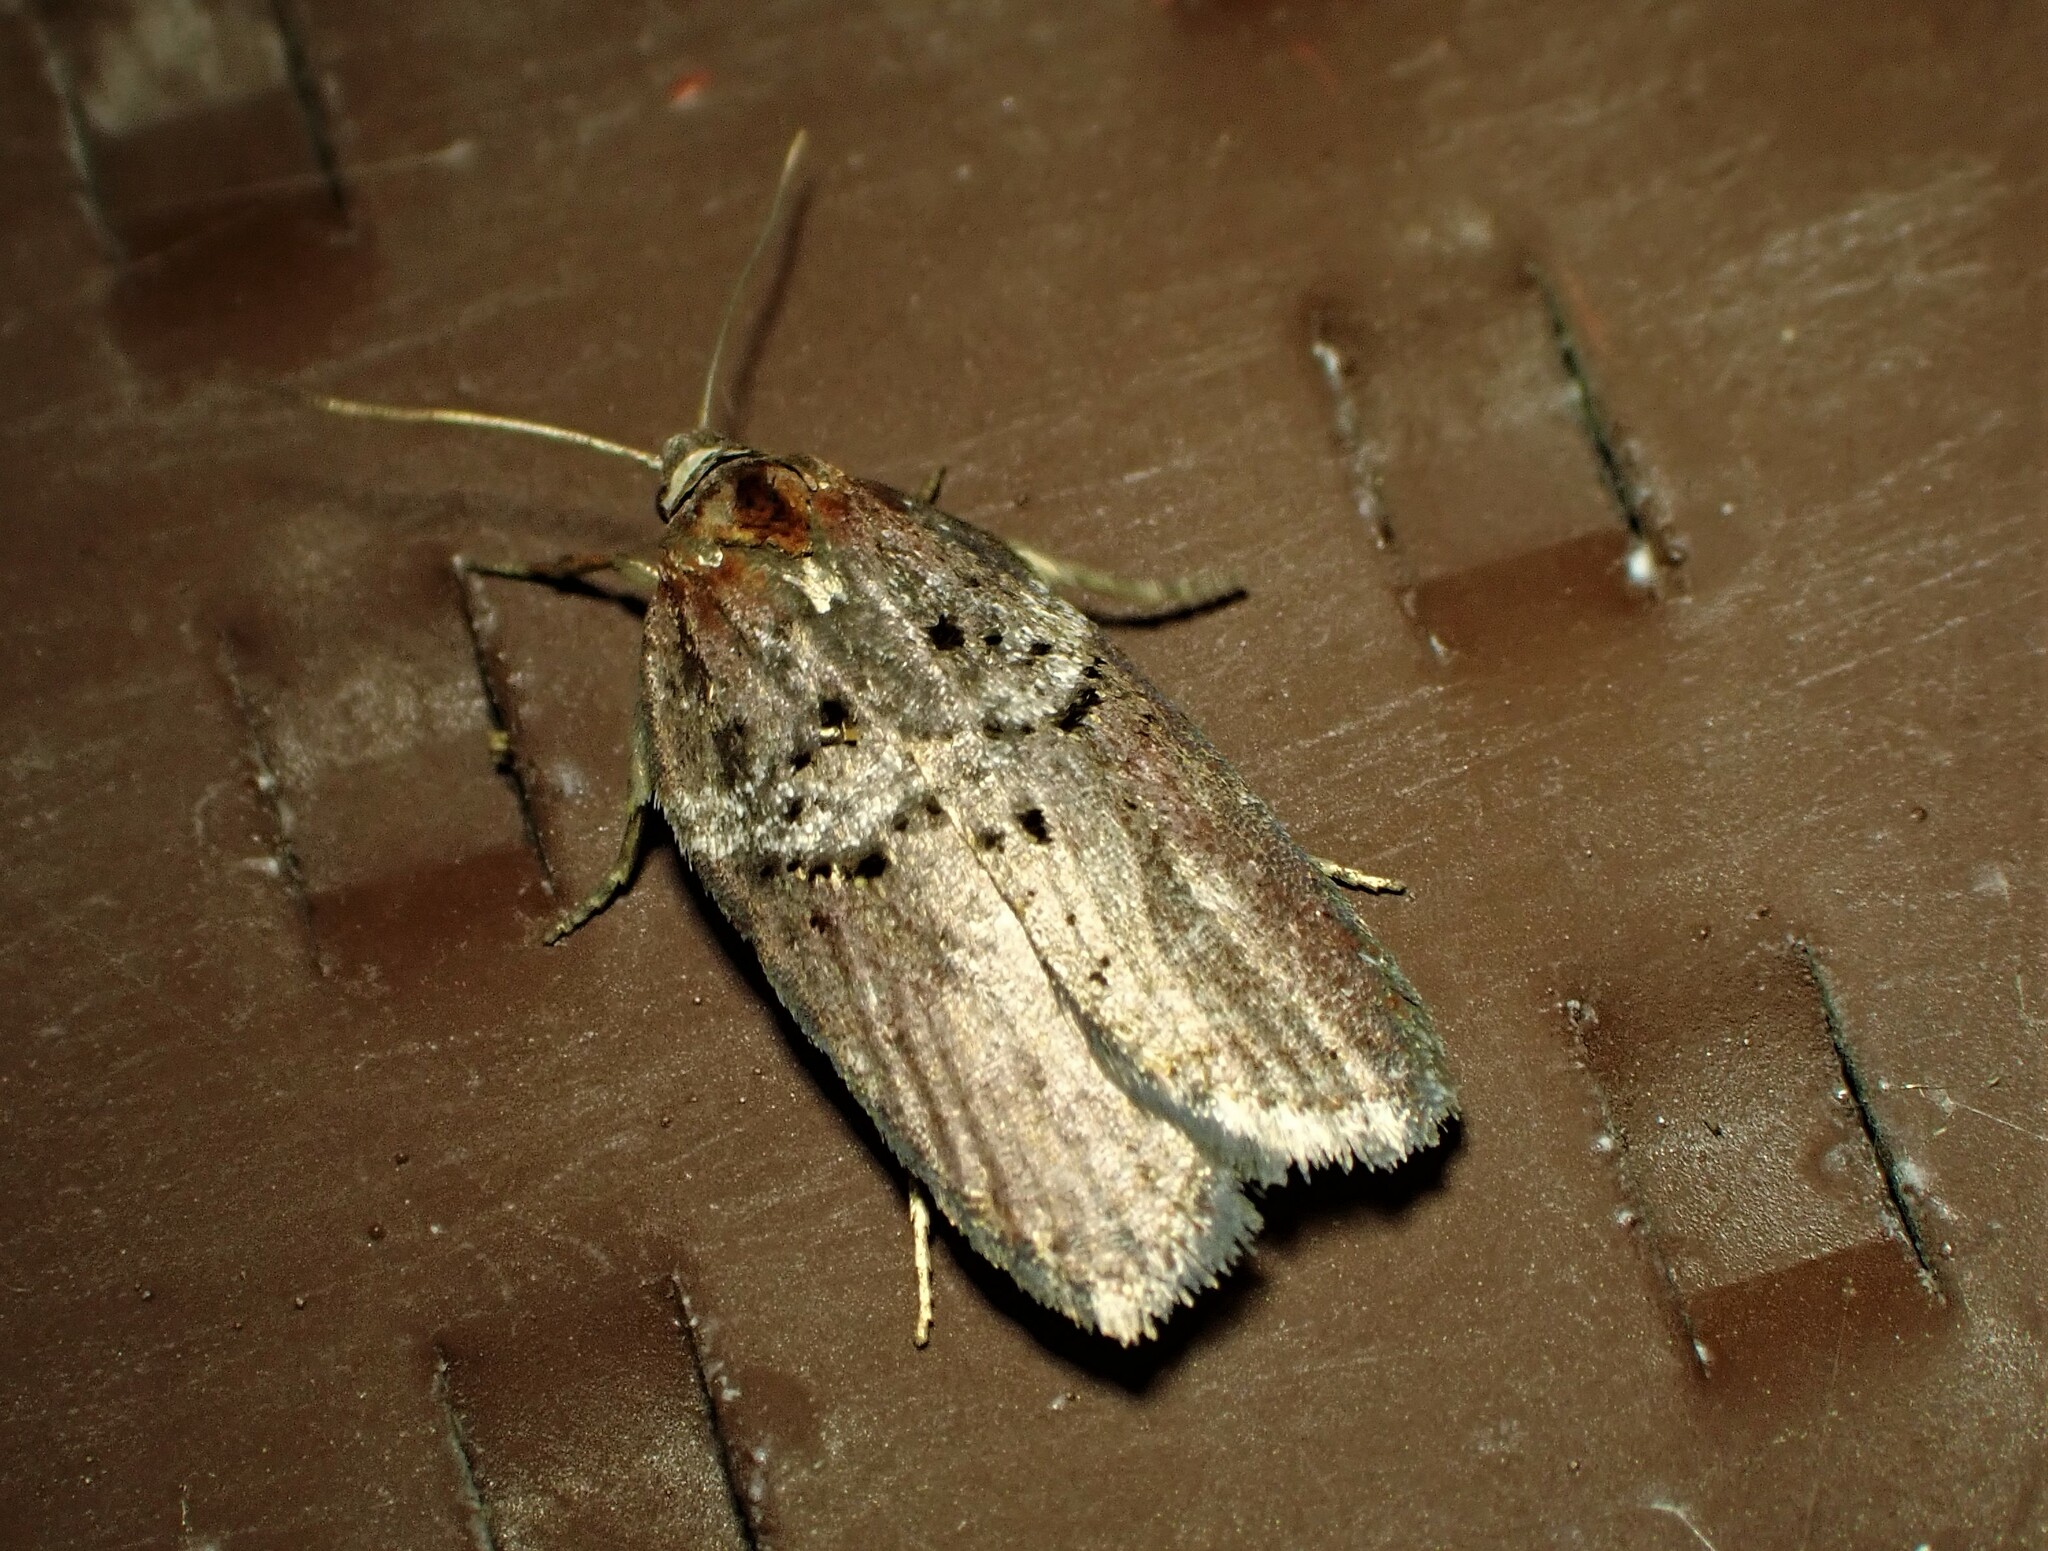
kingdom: Animalia
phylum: Arthropoda
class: Insecta
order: Lepidoptera
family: Tortricidae
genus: Acleris
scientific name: Acleris celiana
